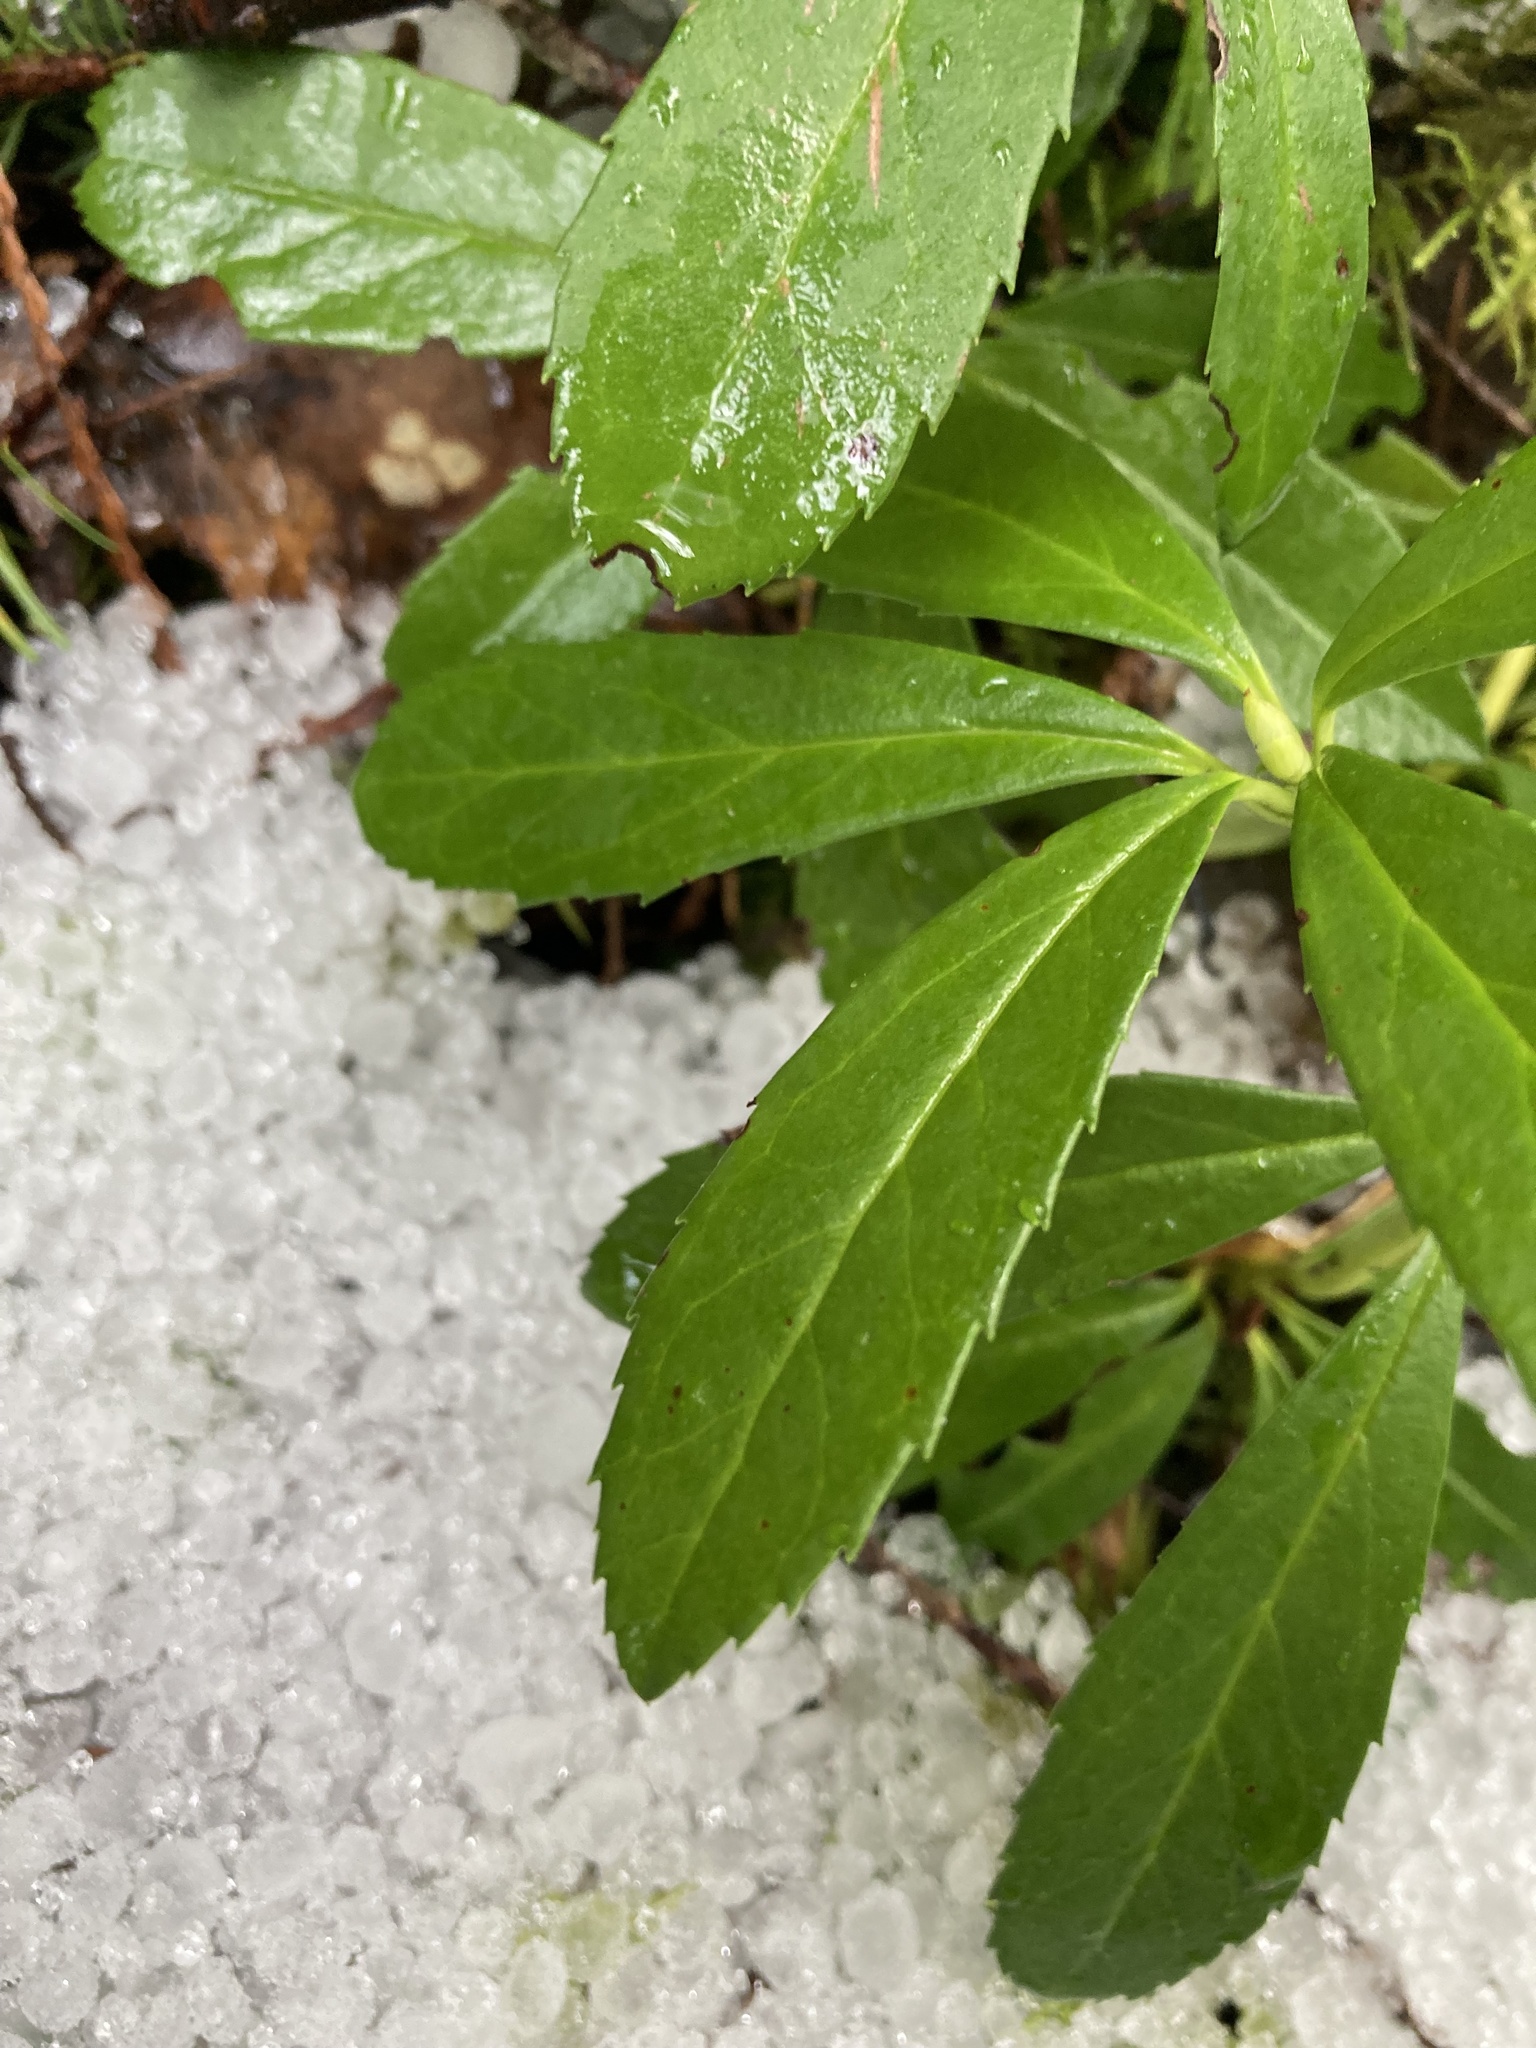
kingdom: Plantae
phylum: Tracheophyta
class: Magnoliopsida
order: Ericales
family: Ericaceae
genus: Chimaphila
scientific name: Chimaphila umbellata
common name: Pipsissewa
